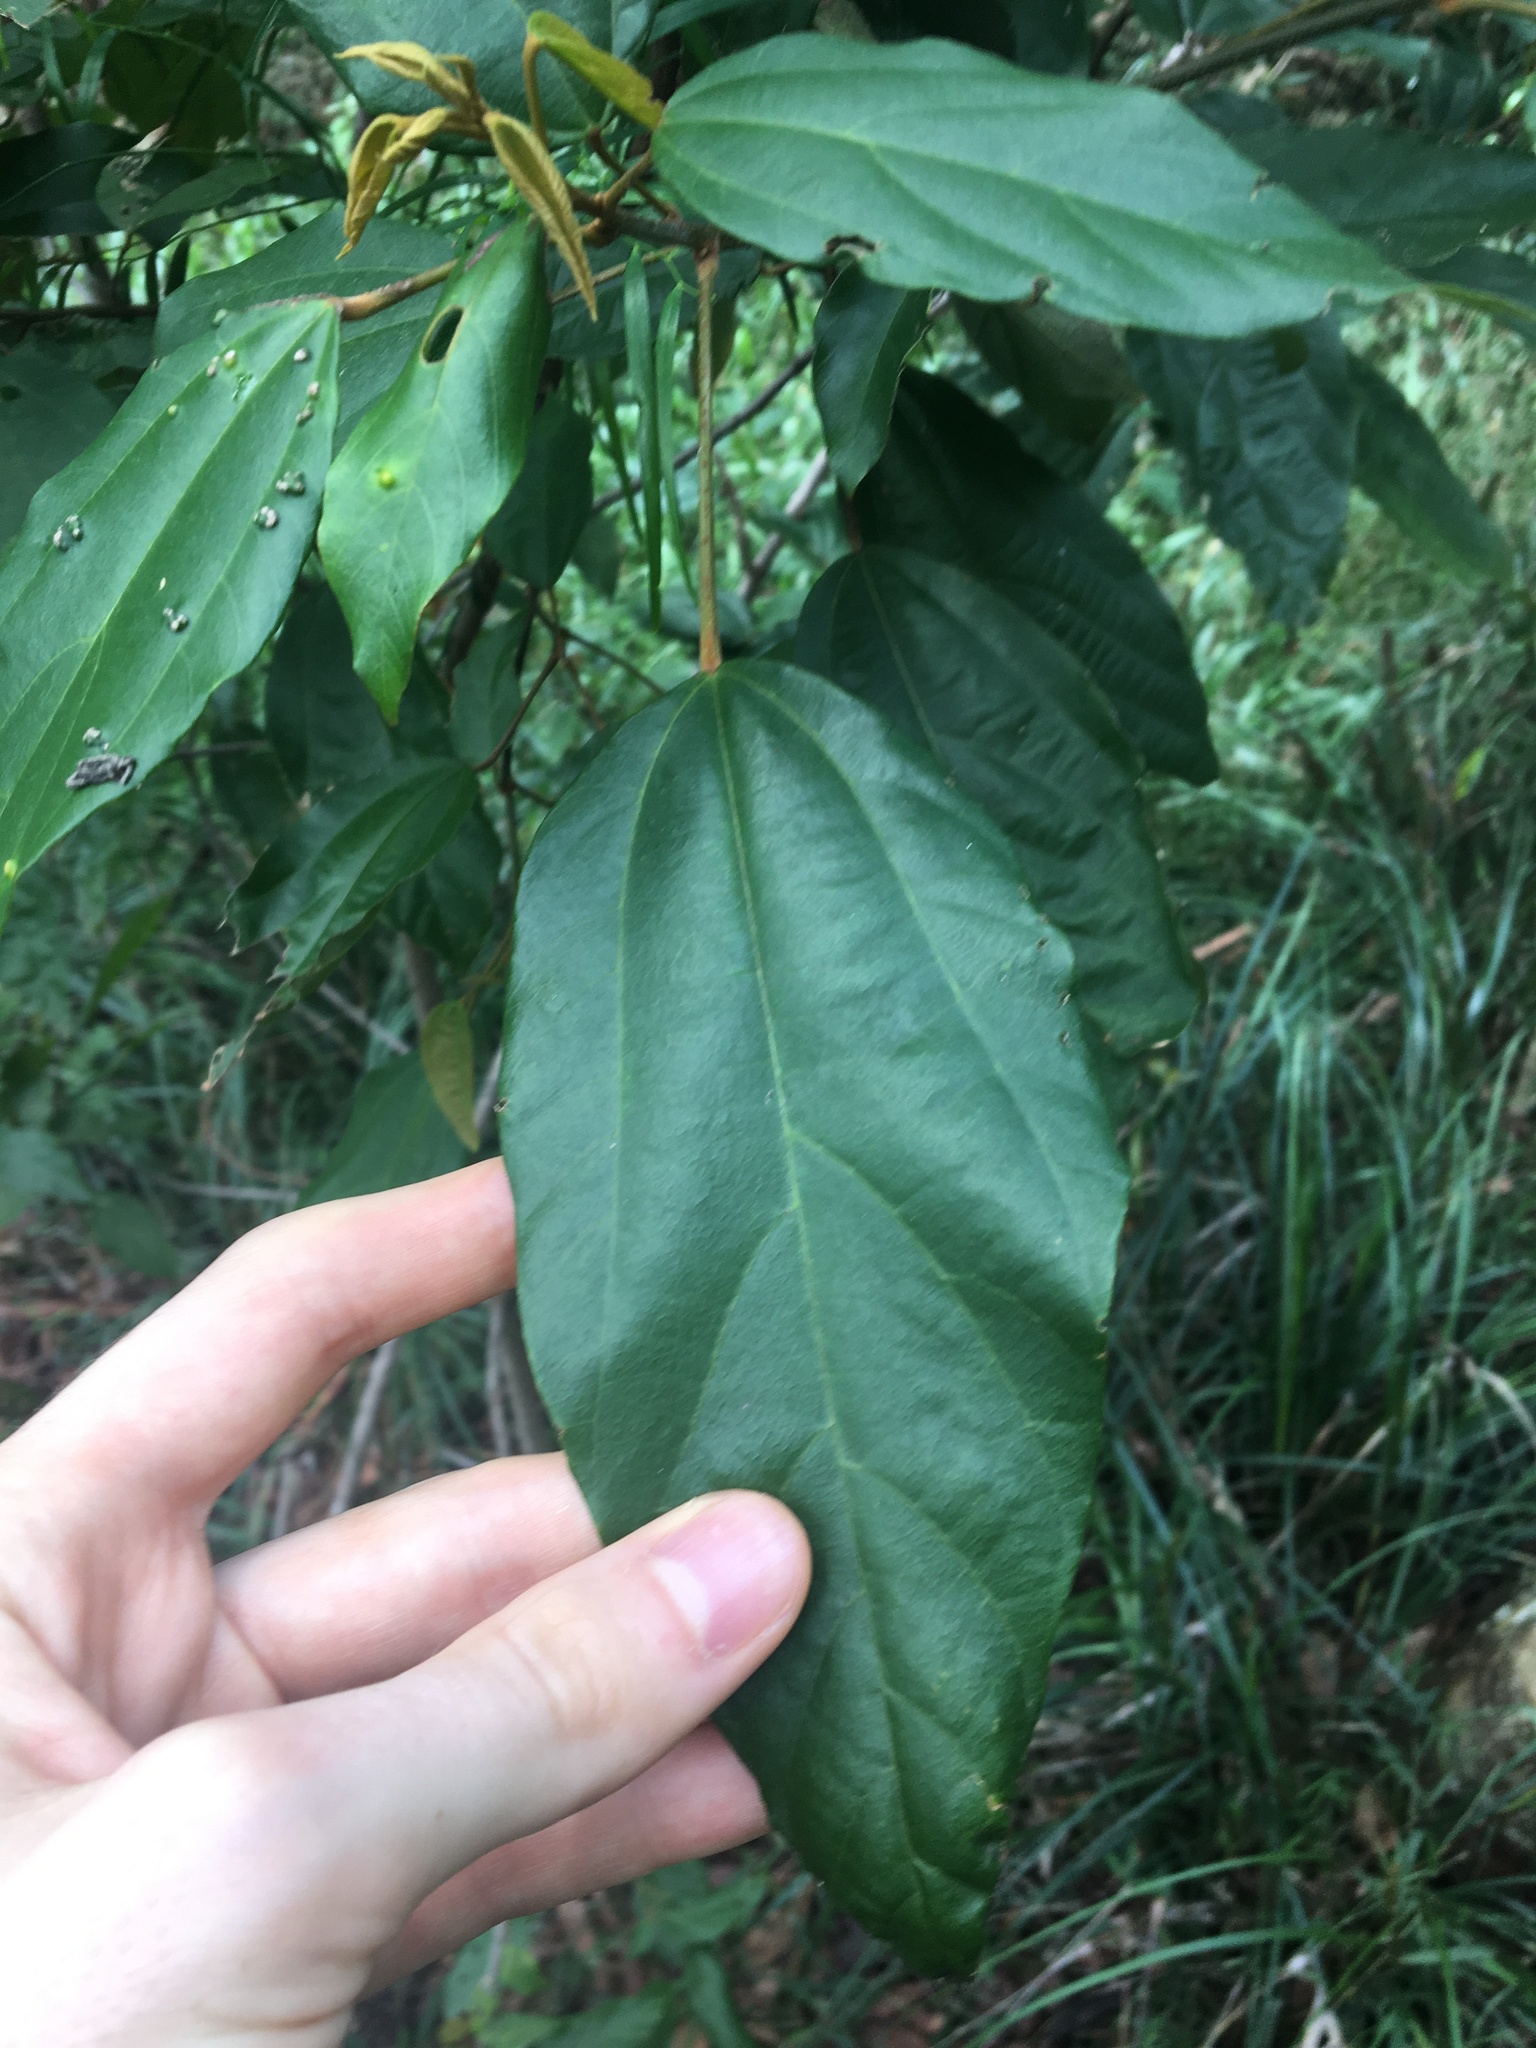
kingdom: Plantae
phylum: Tracheophyta
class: Magnoliopsida
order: Malpighiales
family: Euphorbiaceae
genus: Mallotus
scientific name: Mallotus philippensis
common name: Kamala tree
